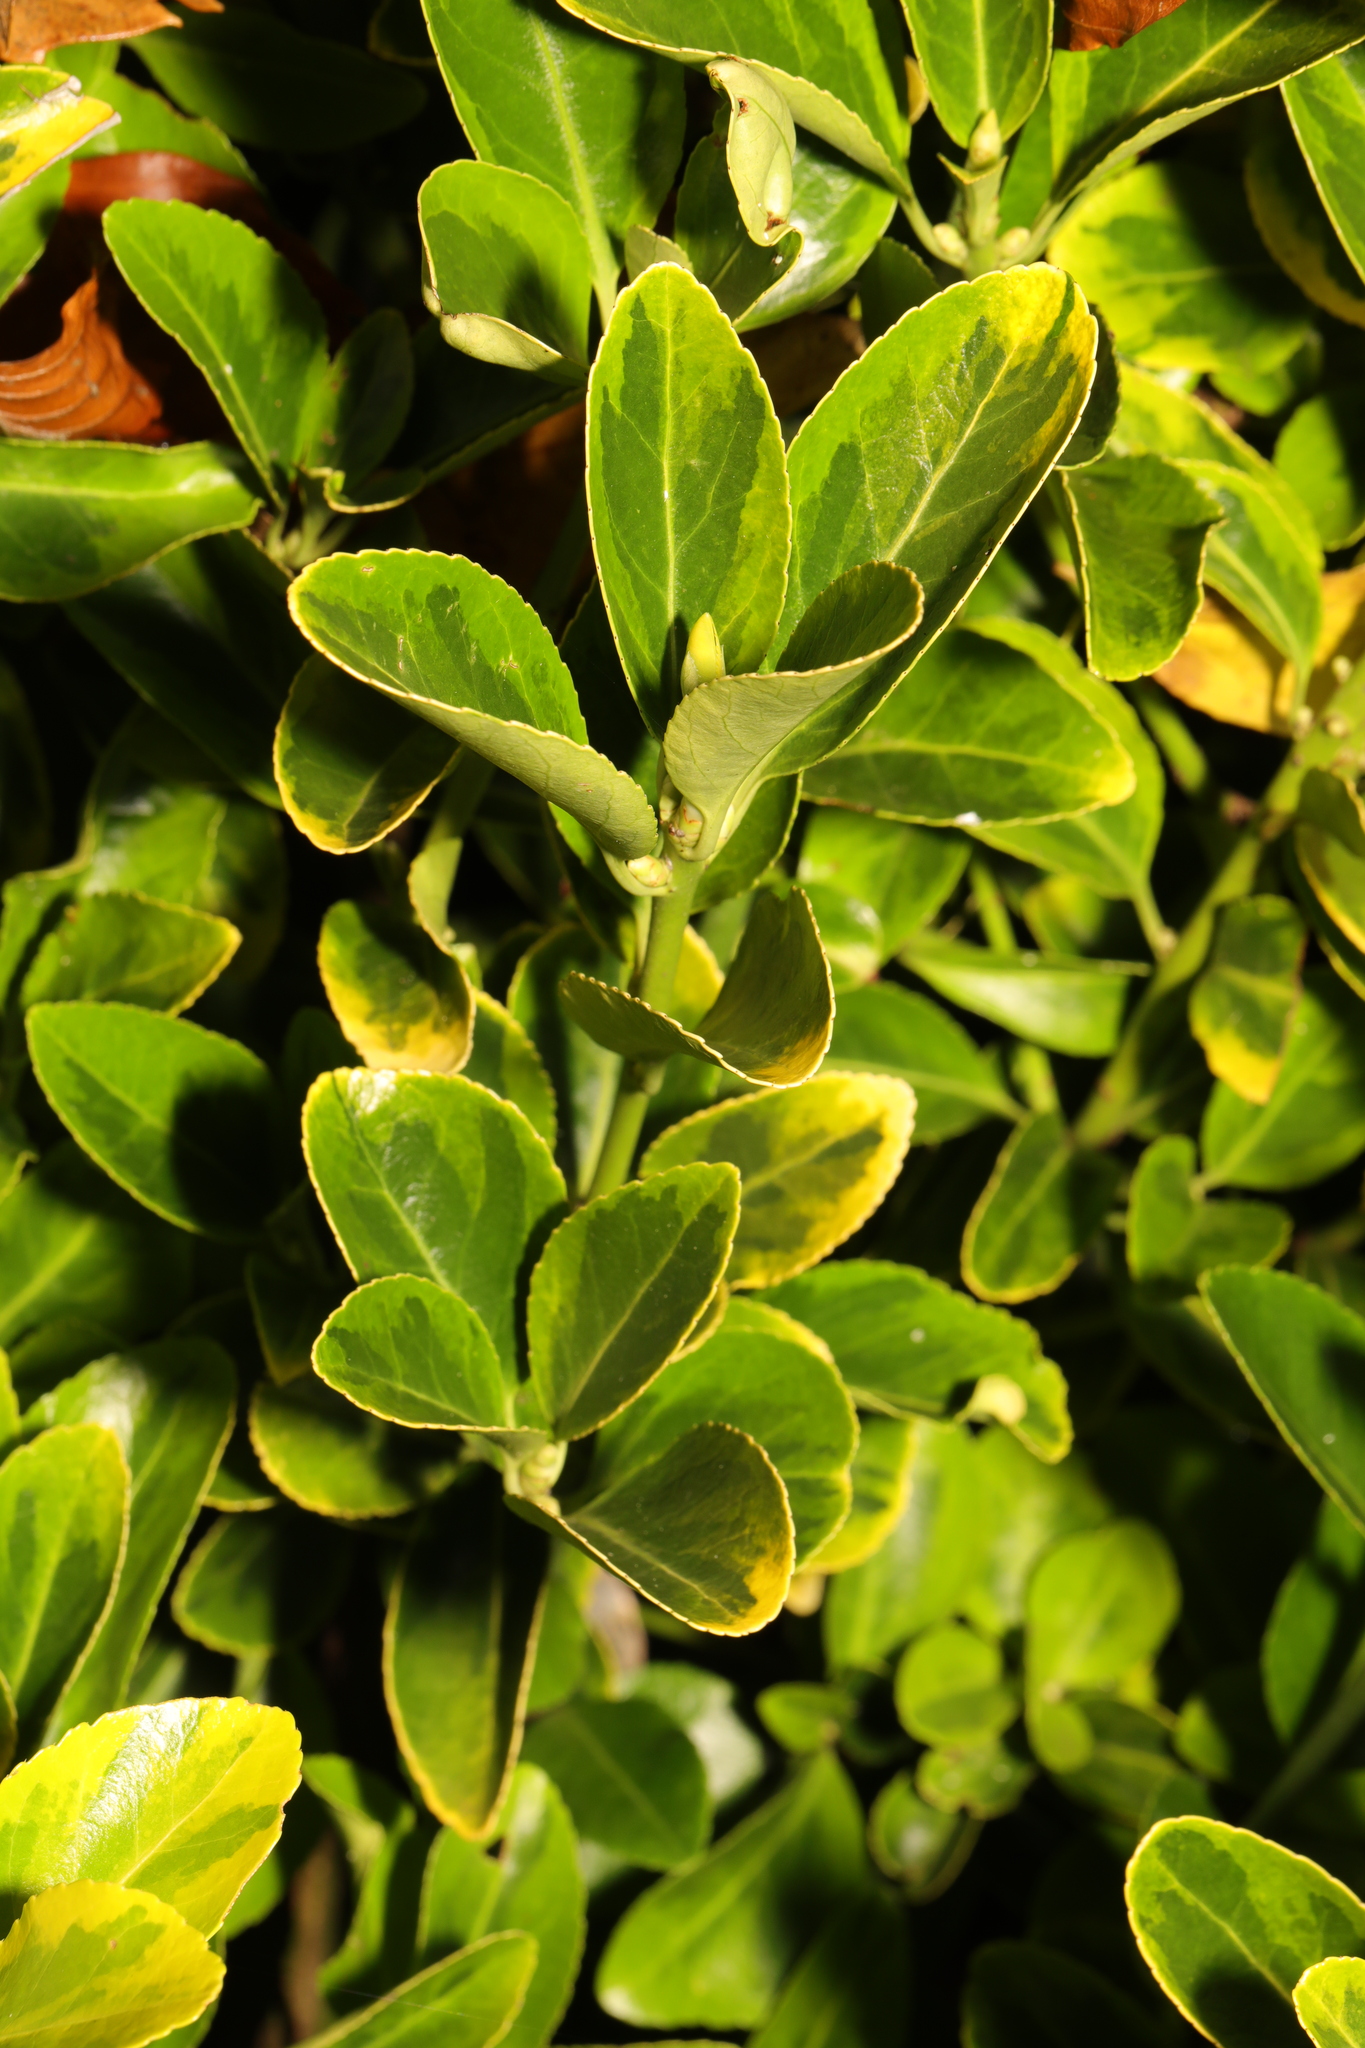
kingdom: Plantae
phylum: Tracheophyta
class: Magnoliopsida
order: Celastrales
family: Celastraceae
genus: Euonymus
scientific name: Euonymus japonicus
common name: Japanese spindletree
